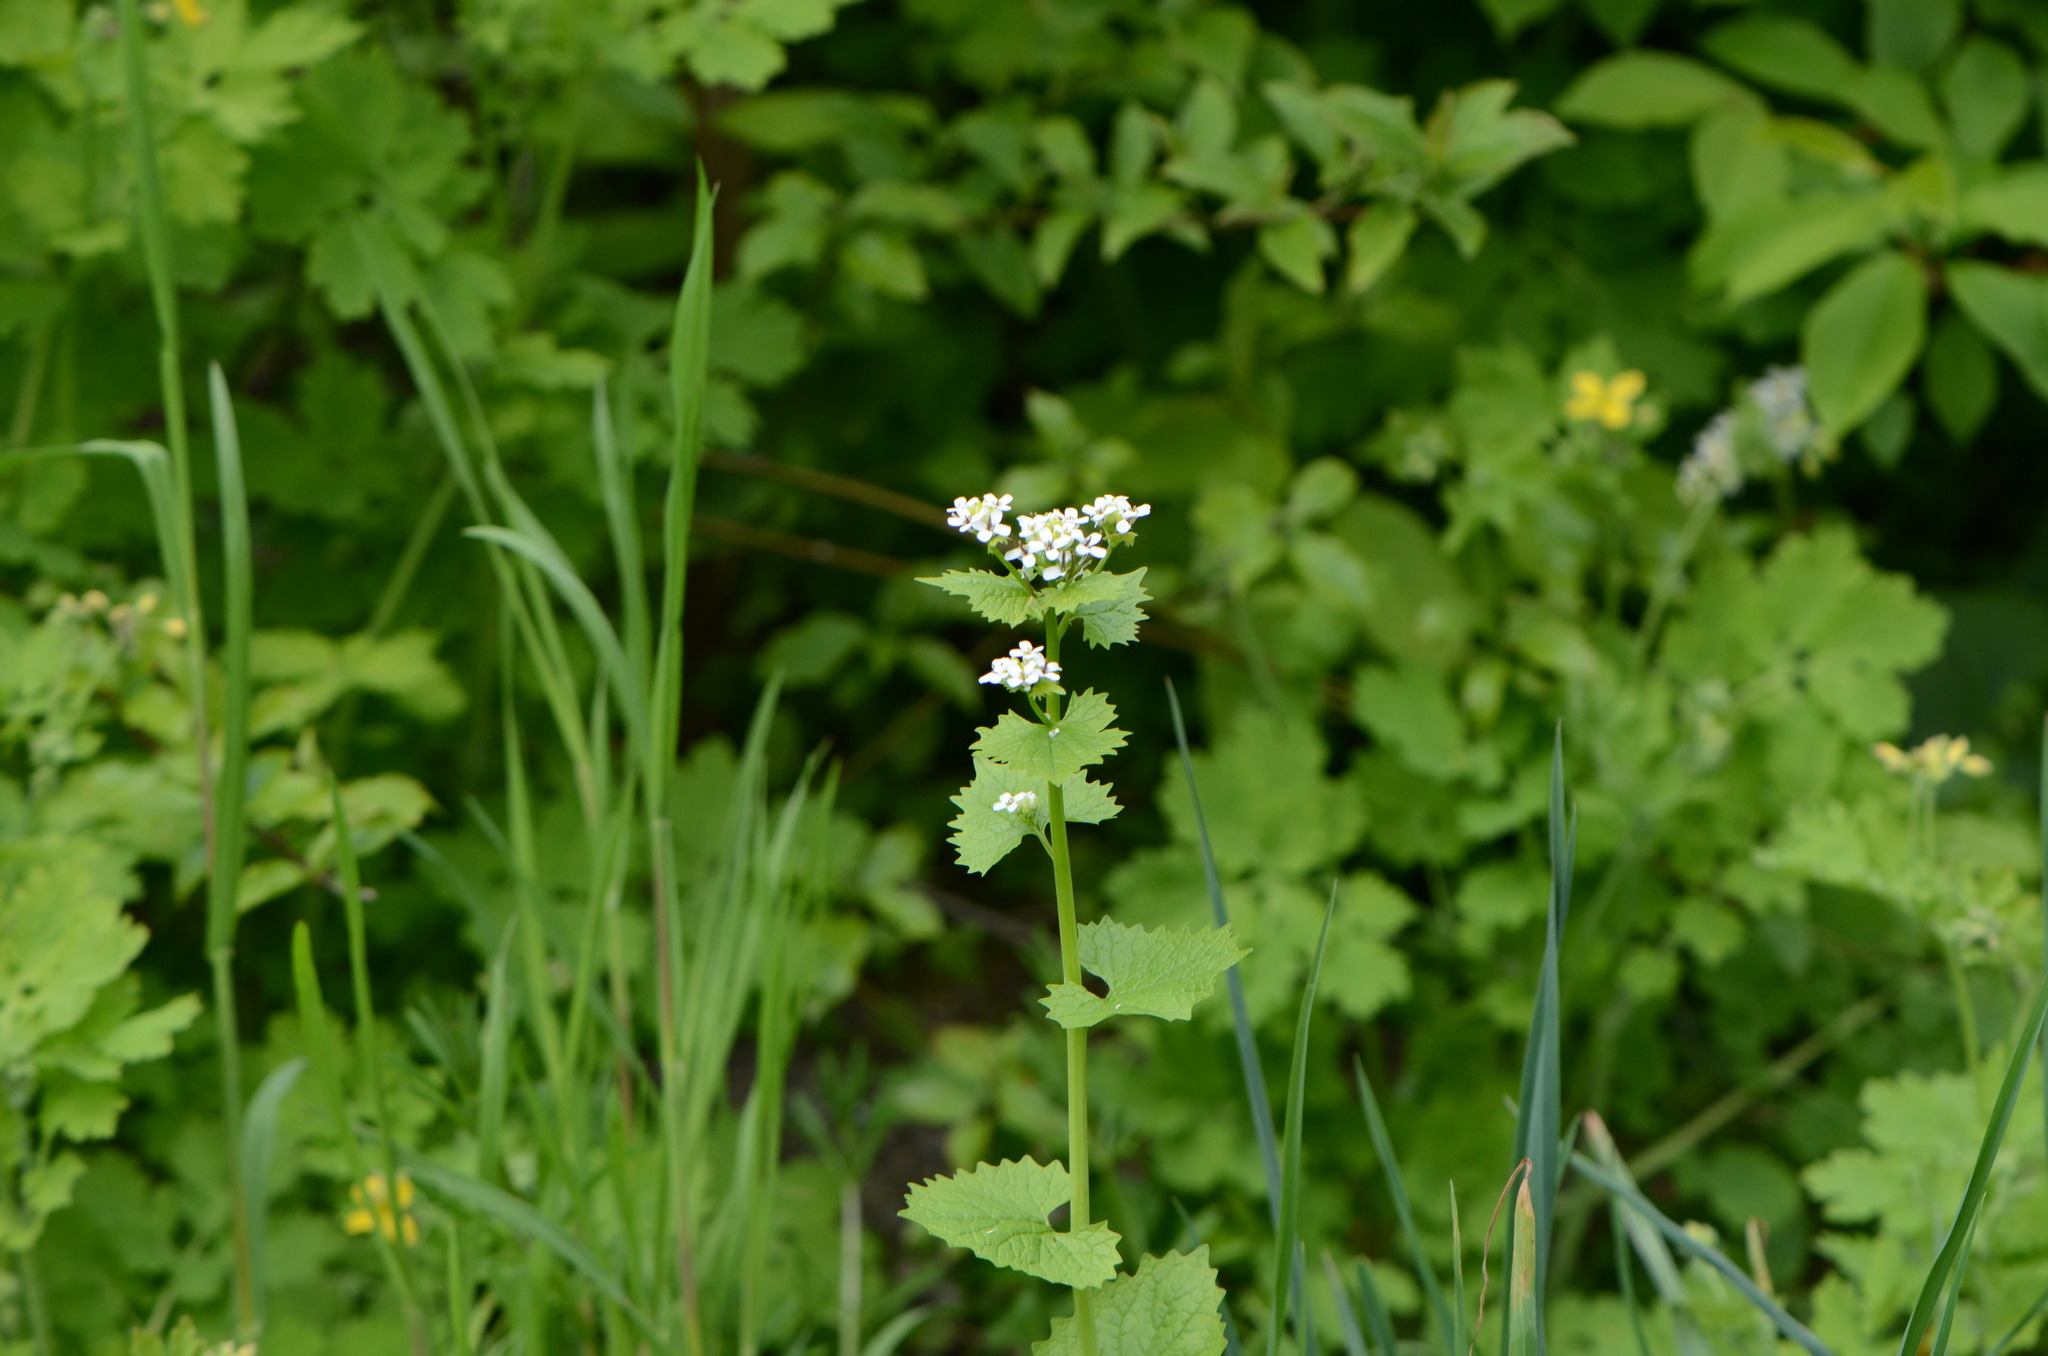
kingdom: Plantae
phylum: Tracheophyta
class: Magnoliopsida
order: Brassicales
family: Brassicaceae
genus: Alliaria
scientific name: Alliaria petiolata
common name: Garlic mustard
